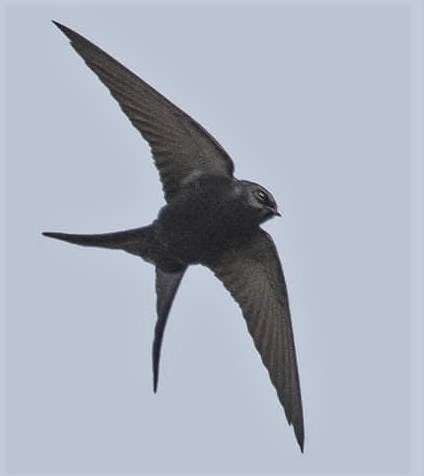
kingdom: Animalia
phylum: Chordata
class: Aves
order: Passeriformes
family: Hirundinidae
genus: Psalidoprocne
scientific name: Psalidoprocne pristoptera
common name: Black saw-wing
